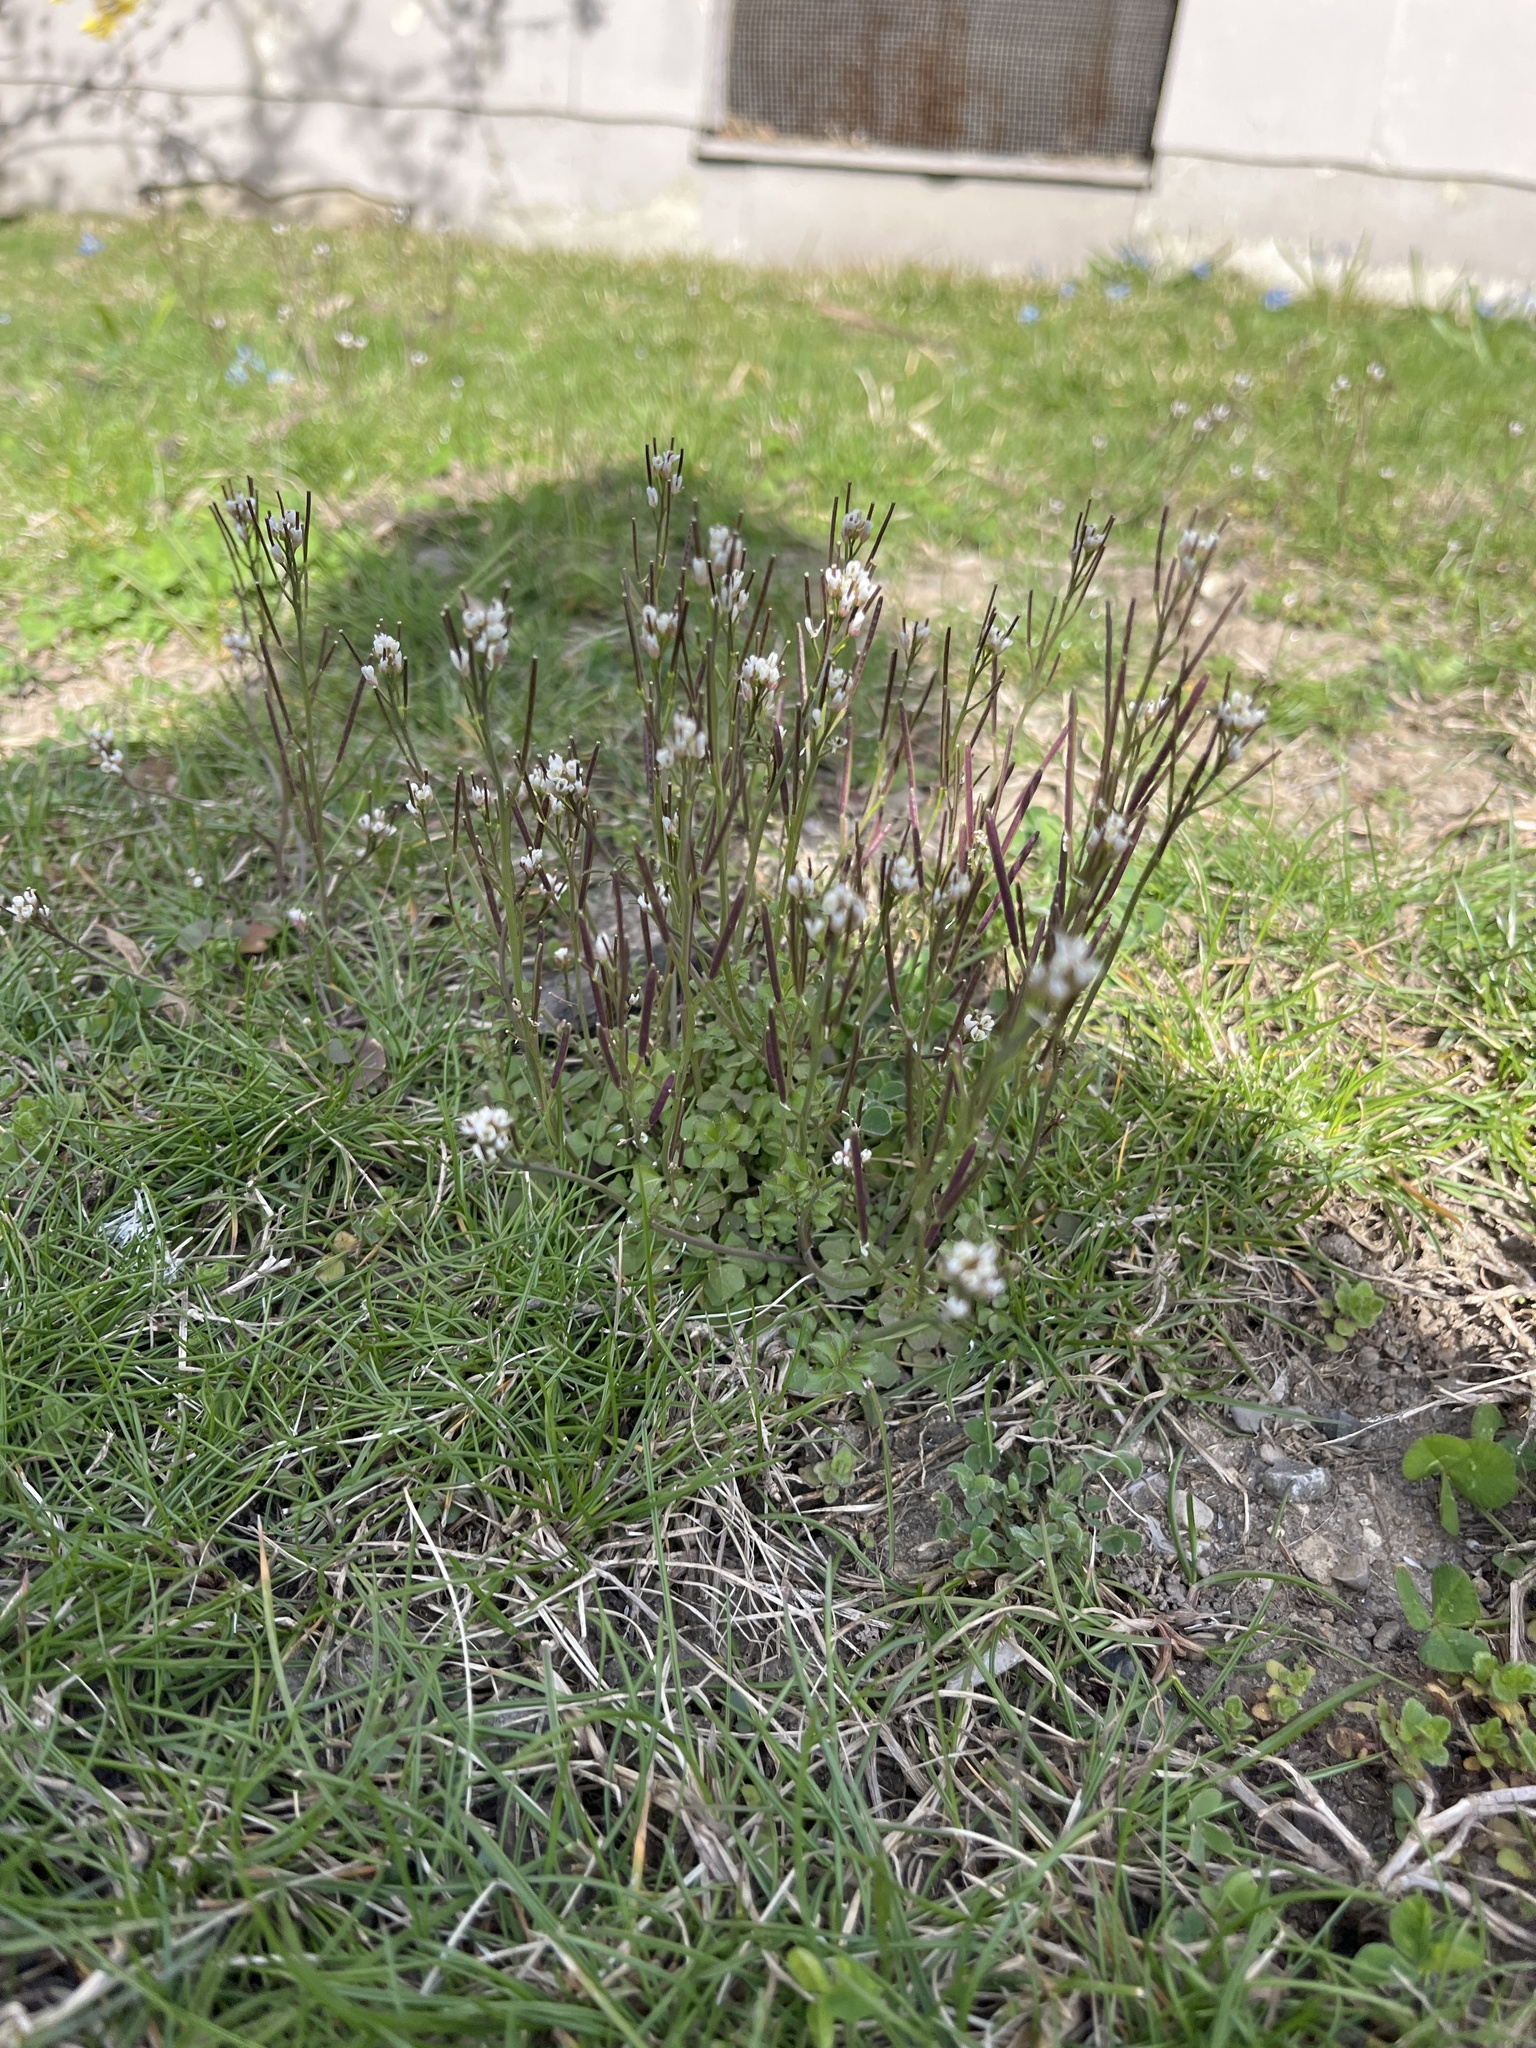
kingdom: Plantae
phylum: Tracheophyta
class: Magnoliopsida
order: Brassicales
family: Brassicaceae
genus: Cardamine
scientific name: Cardamine hirsuta
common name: Hairy bittercress
